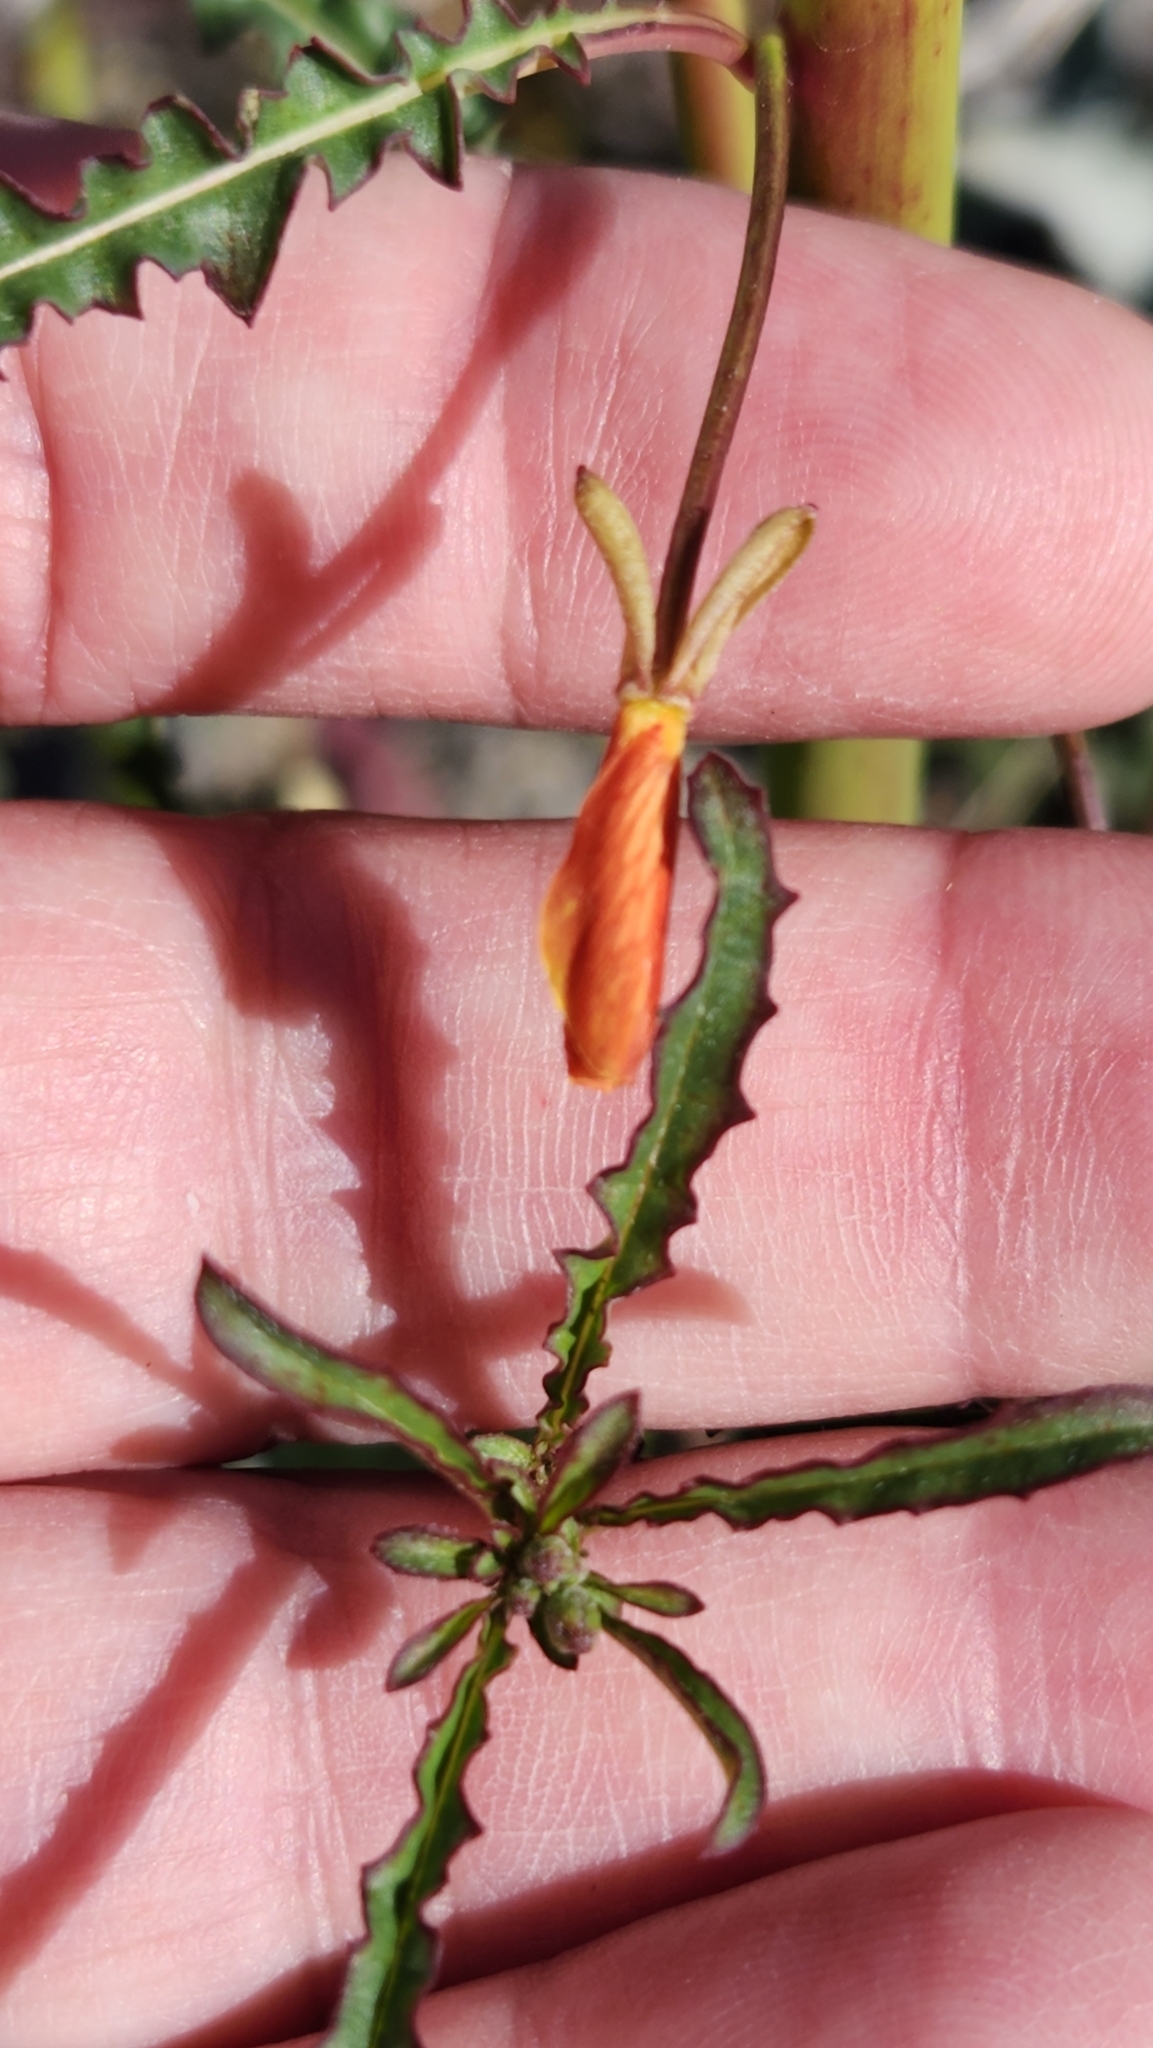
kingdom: Plantae
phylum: Tracheophyta
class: Magnoliopsida
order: Myrtales
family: Onagraceae
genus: Eulobus
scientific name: Eulobus californicus
